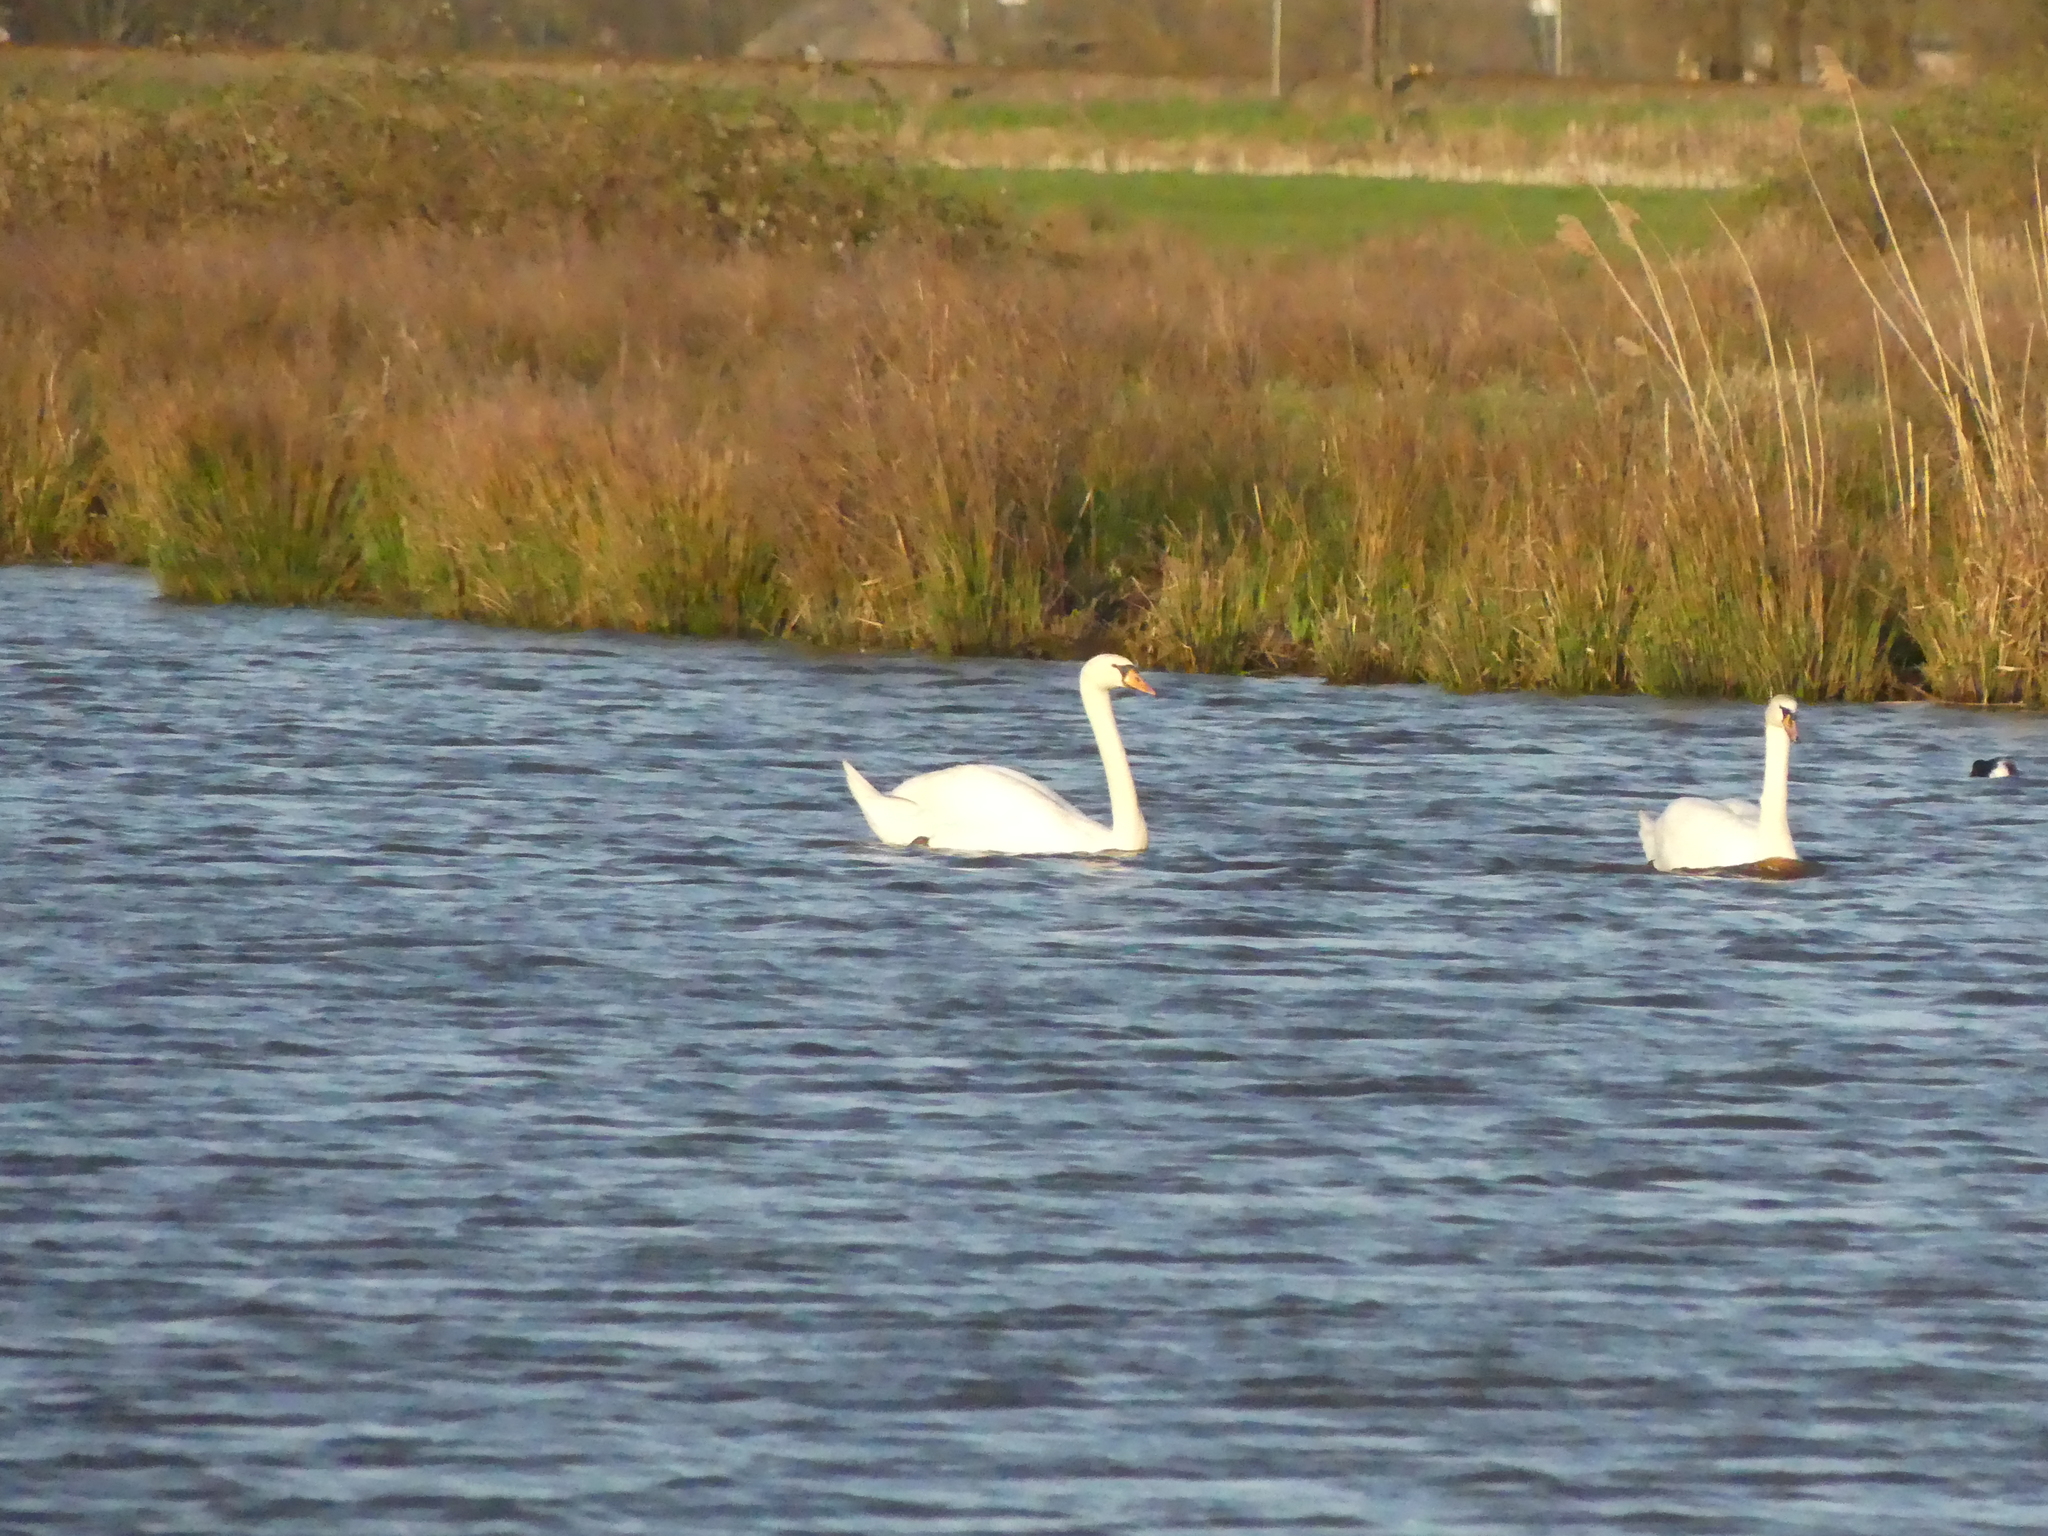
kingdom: Animalia
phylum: Chordata
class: Aves
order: Anseriformes
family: Anatidae
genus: Cygnus
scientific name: Cygnus olor
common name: Mute swan
